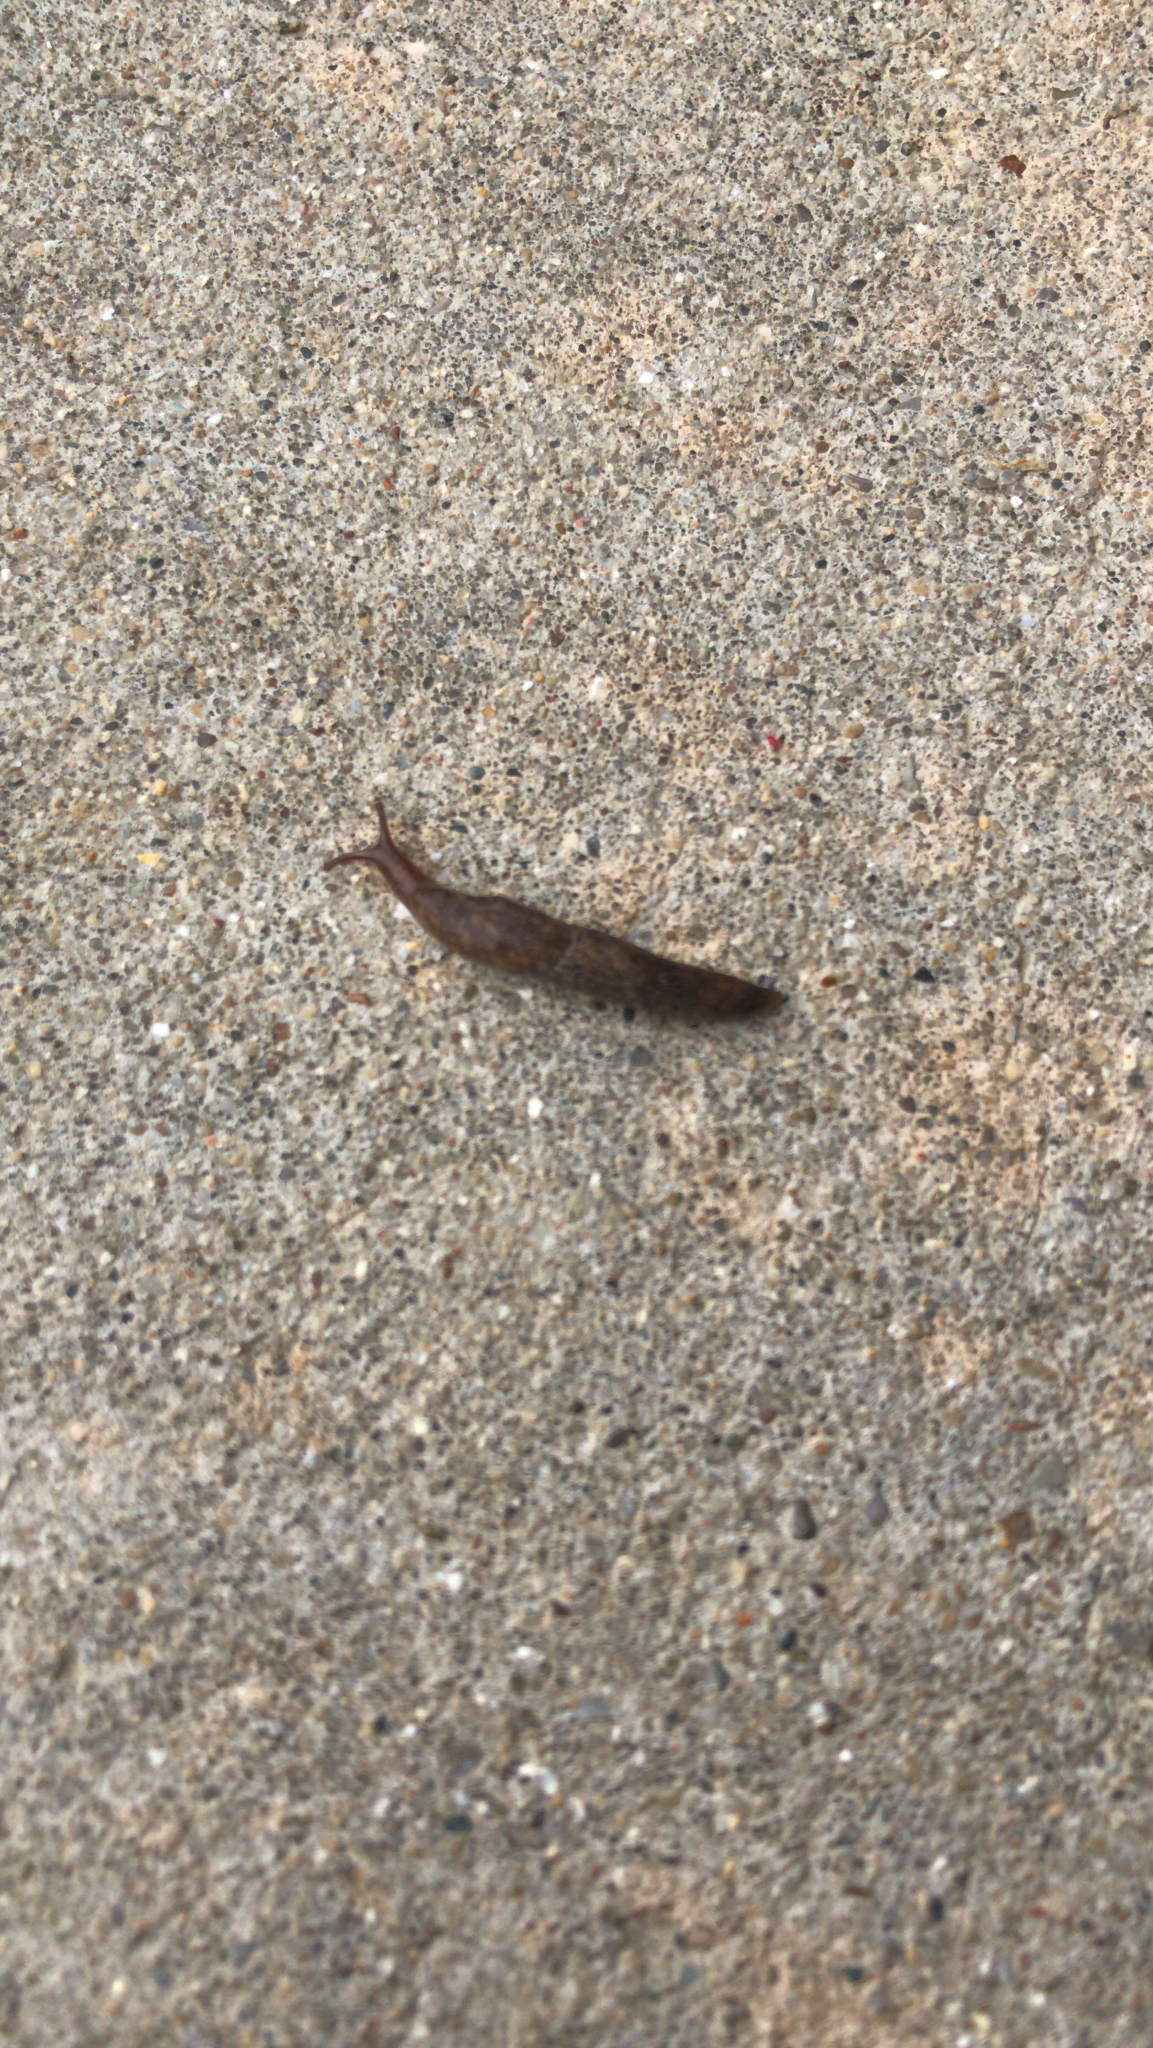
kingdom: Animalia
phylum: Mollusca
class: Gastropoda
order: Stylommatophora
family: Agriolimacidae
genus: Deroceras
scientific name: Deroceras laeve
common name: Marsh slug
